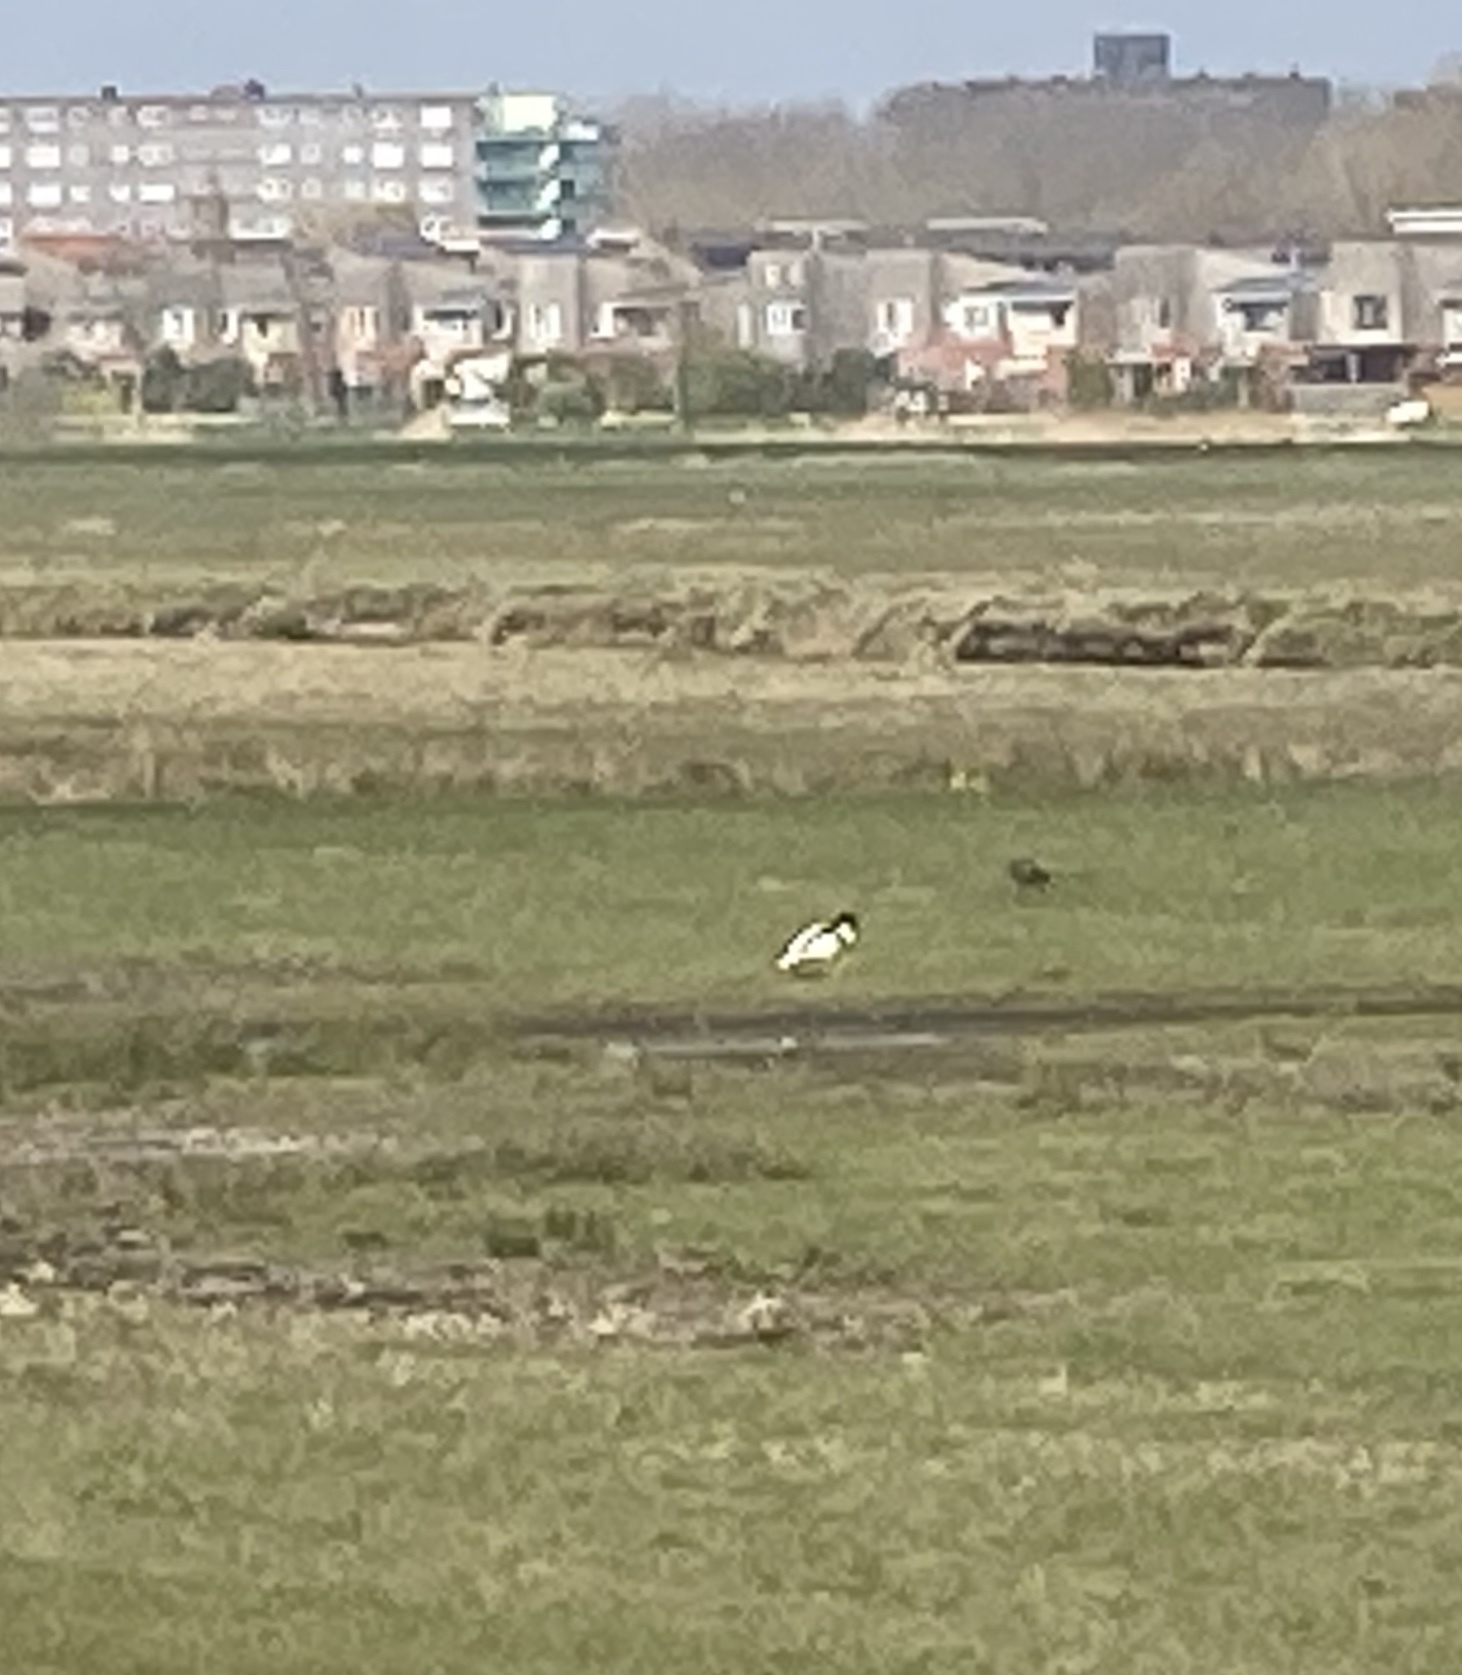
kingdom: Animalia
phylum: Chordata
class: Aves
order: Anseriformes
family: Anatidae
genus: Tadorna
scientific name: Tadorna tadorna
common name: Common shelduck
